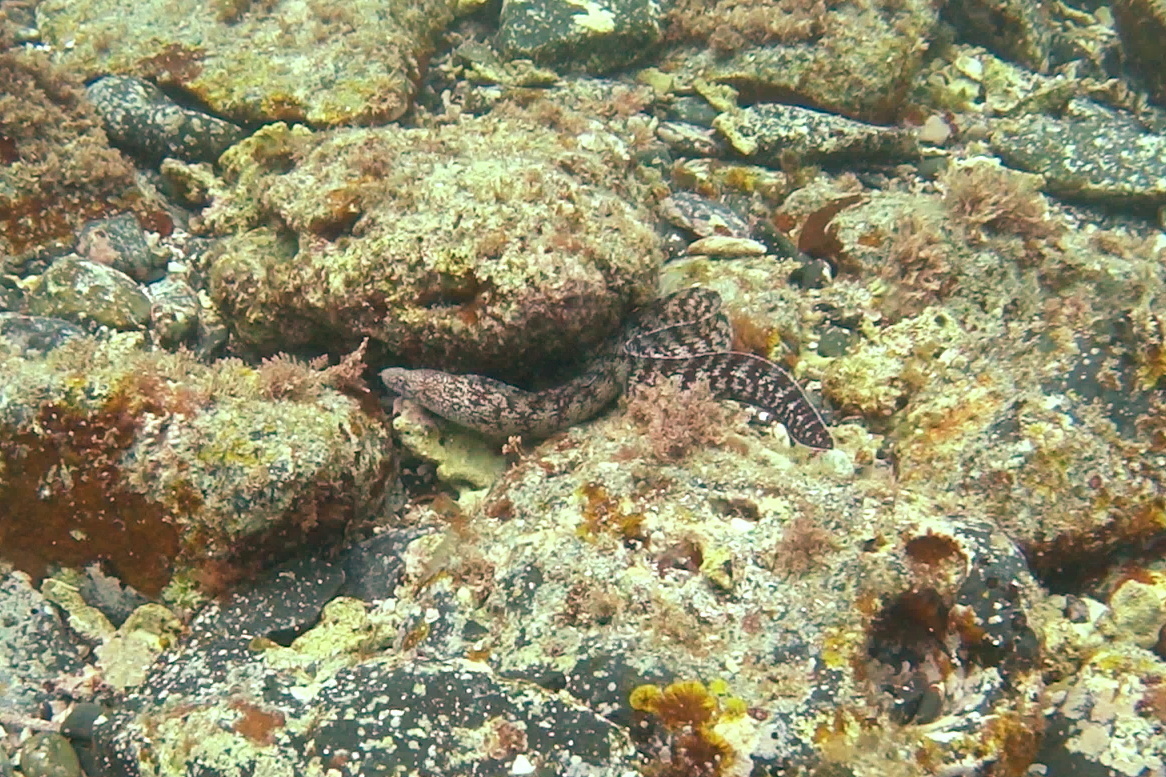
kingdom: Animalia
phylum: Chordata
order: Anguilliformes
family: Muraenidae
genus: Gymnothorax
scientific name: Gymnothorax kidako
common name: Kidako moray
